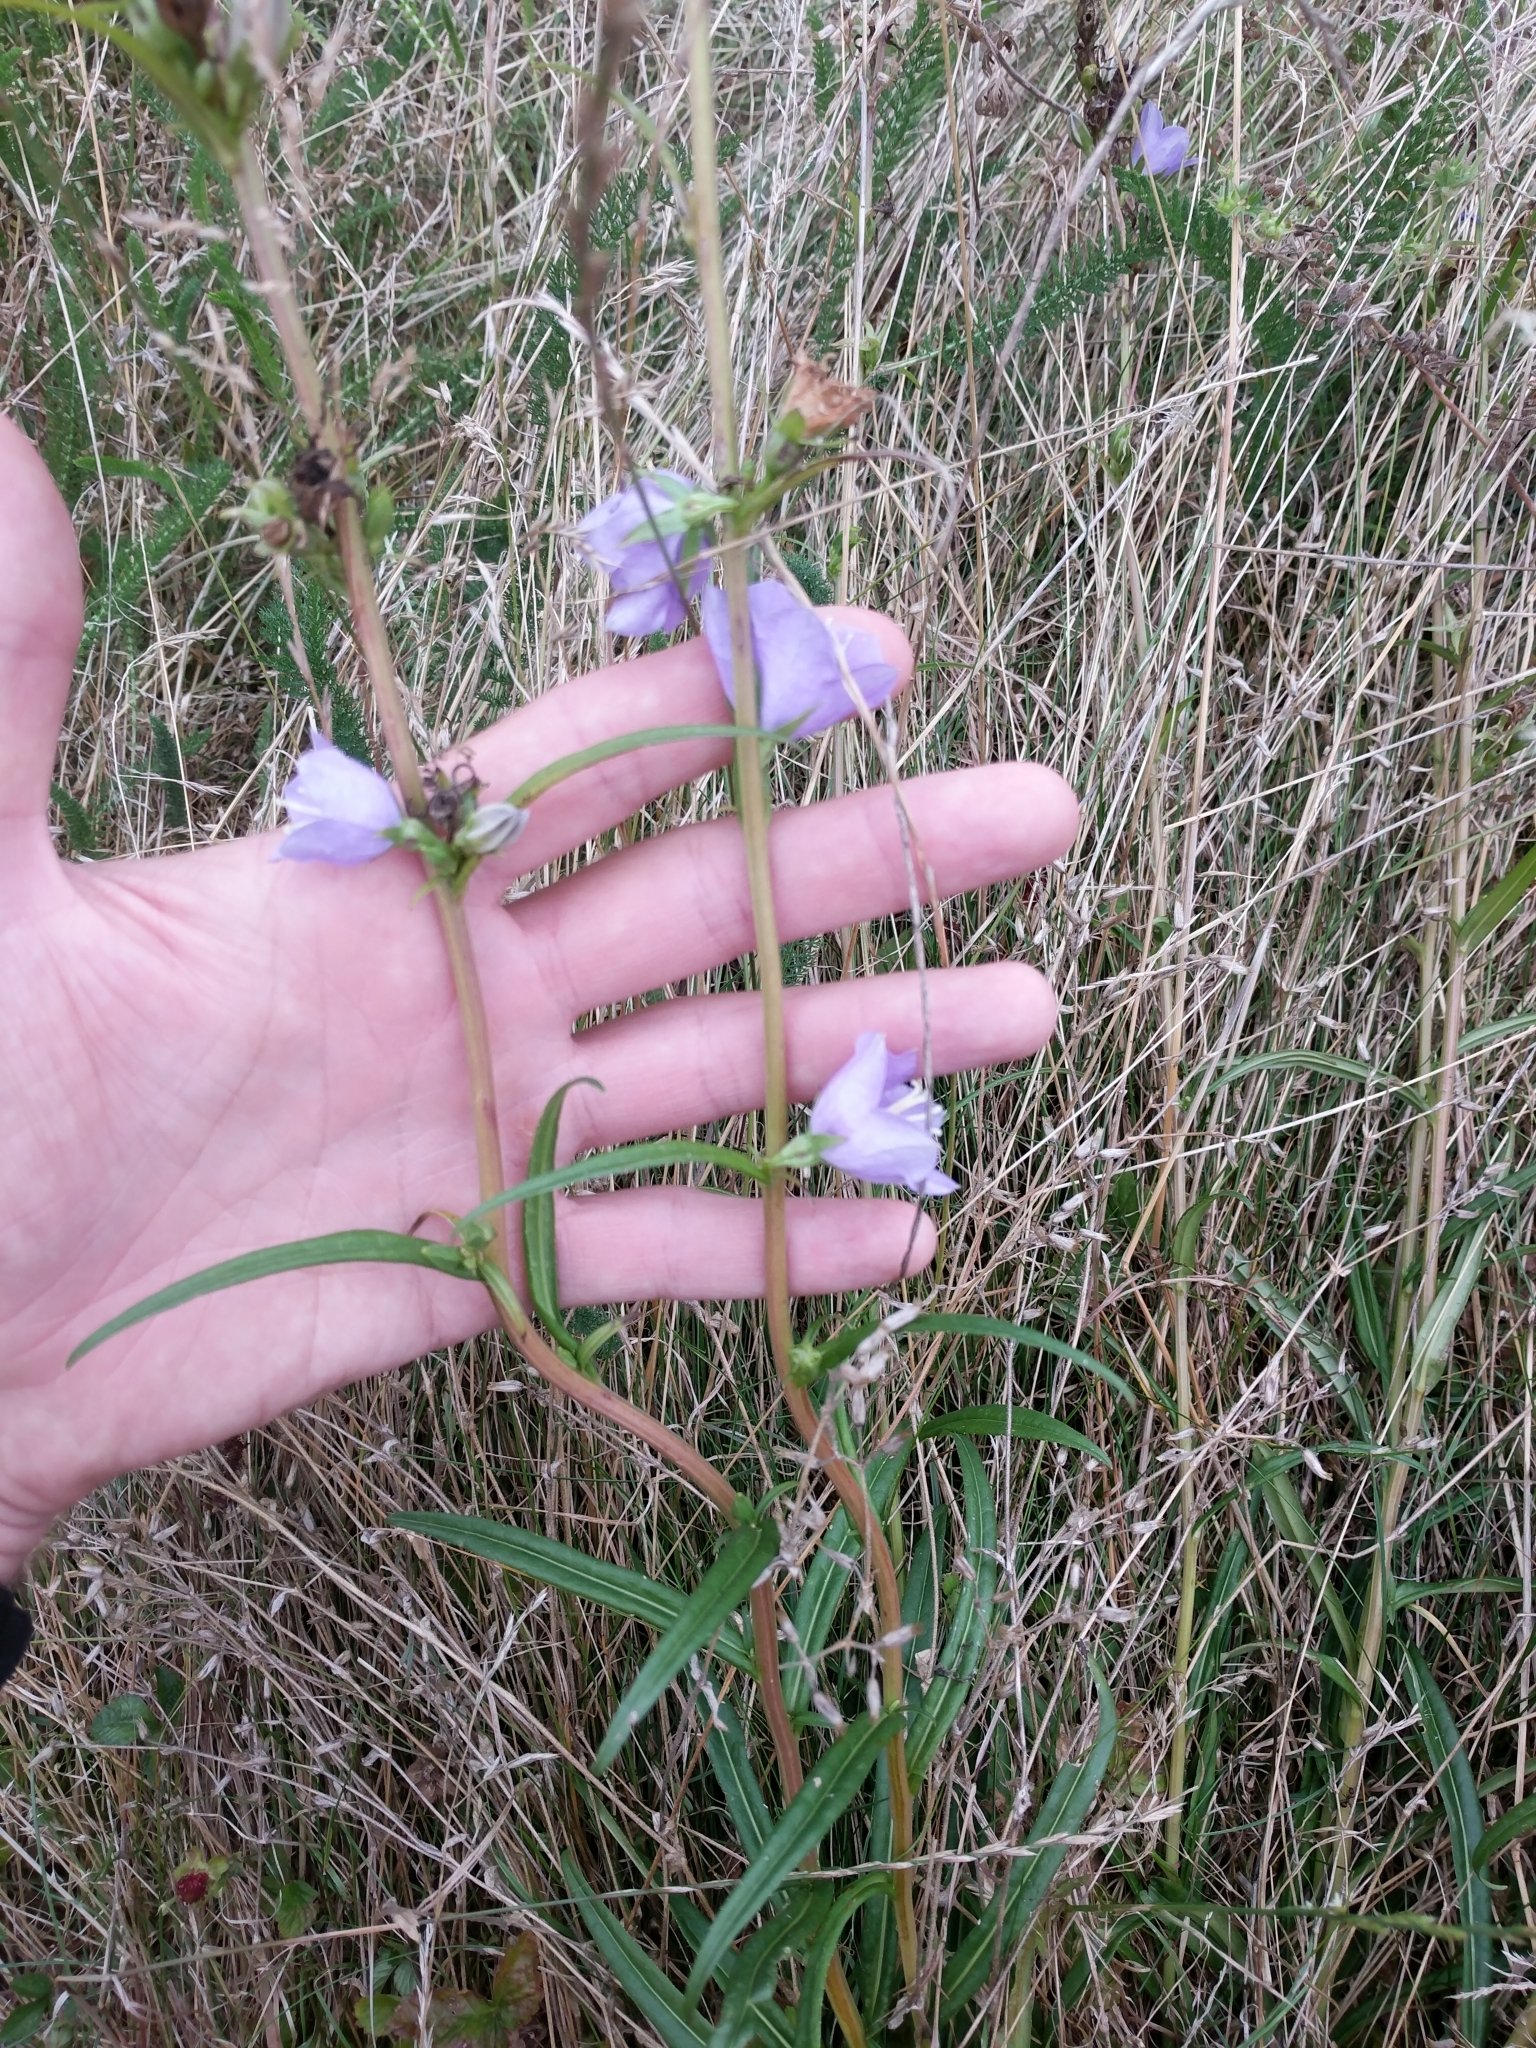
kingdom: Plantae
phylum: Tracheophyta
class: Magnoliopsida
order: Asterales
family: Campanulaceae
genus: Campanula
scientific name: Campanula persicifolia
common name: Peach-leaved bellflower
